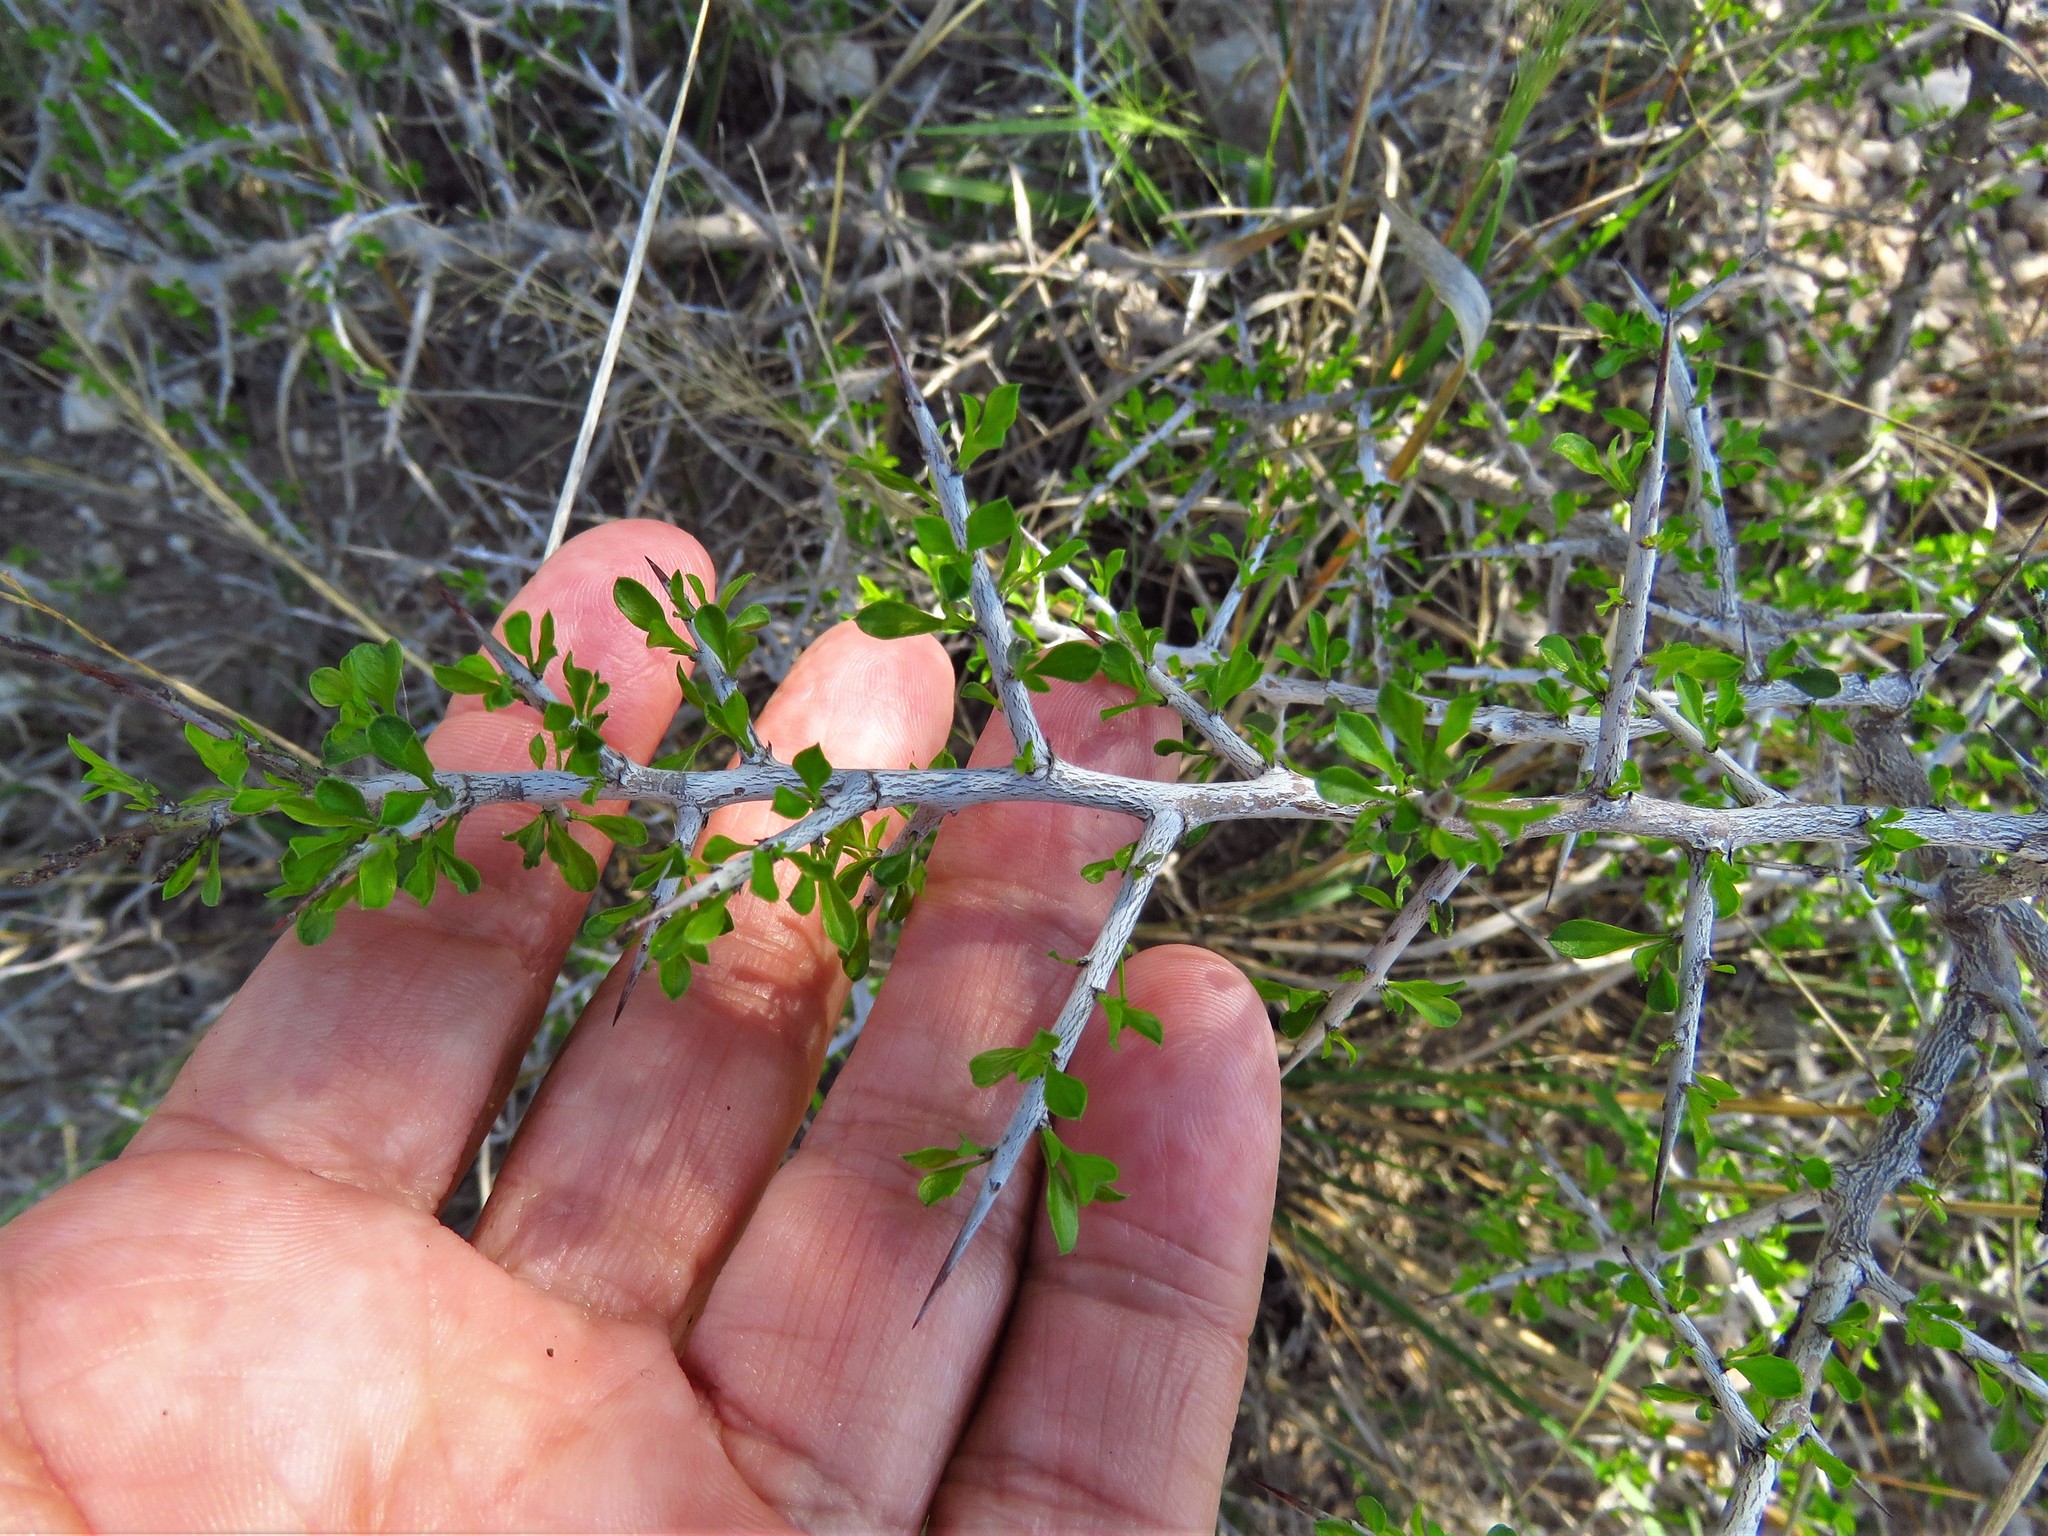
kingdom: Plantae
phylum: Tracheophyta
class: Magnoliopsida
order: Rosales
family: Rhamnaceae
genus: Condalia
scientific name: Condalia viridis
